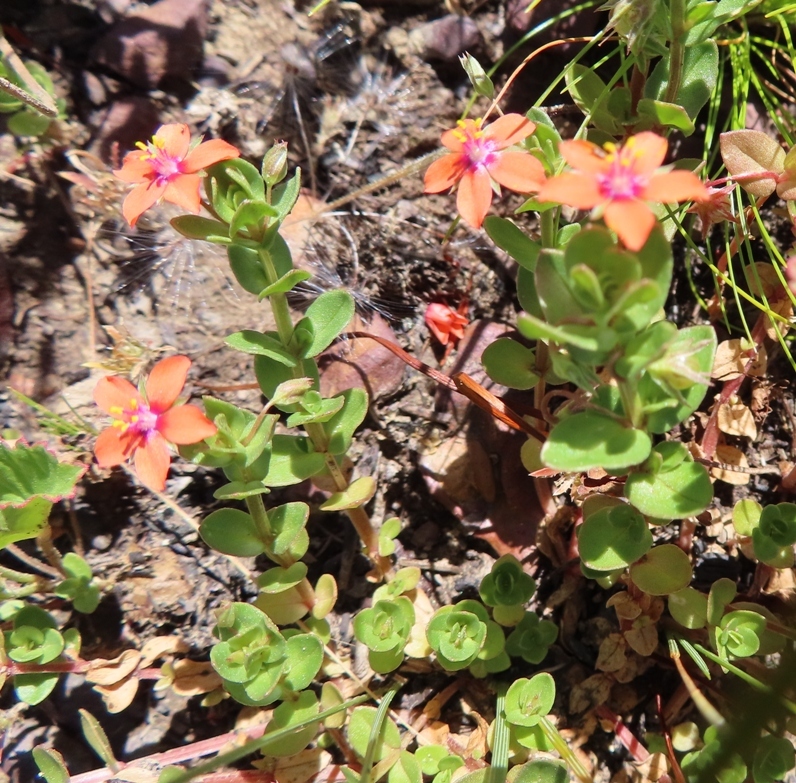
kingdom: Plantae
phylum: Tracheophyta
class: Magnoliopsida
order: Ericales
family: Primulaceae
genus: Lysimachia
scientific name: Lysimachia arvensis
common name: Scarlet pimpernel
